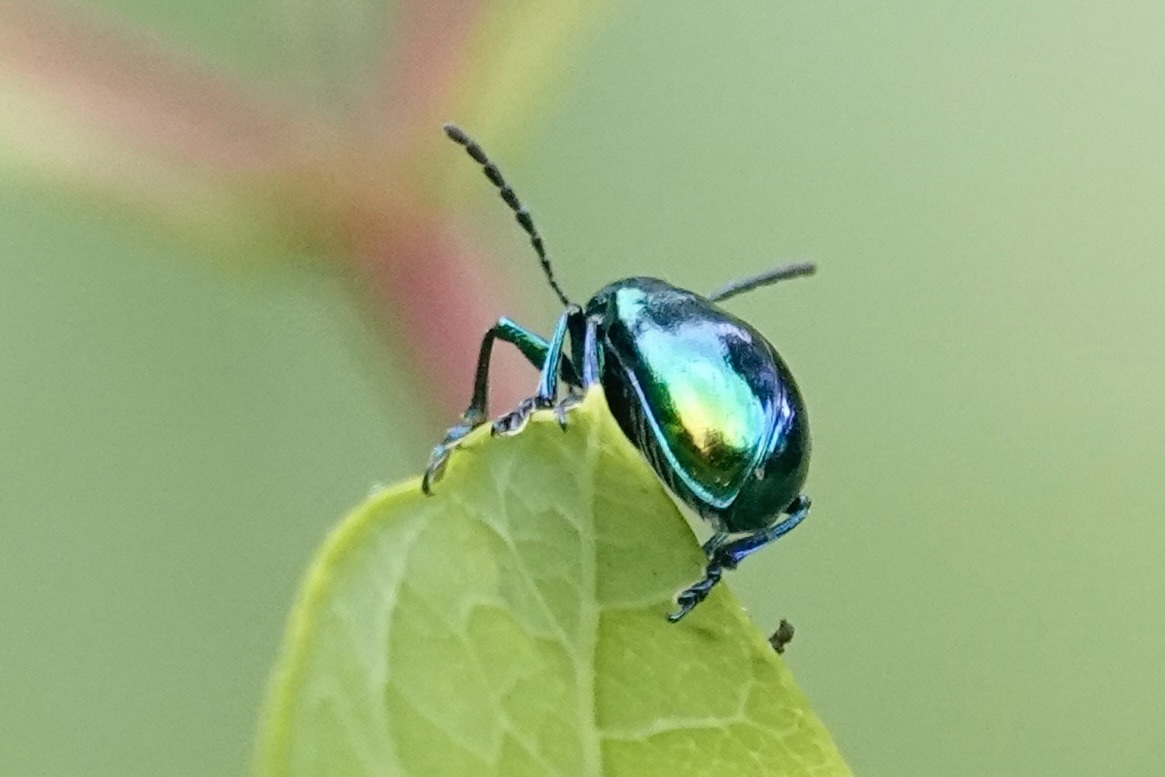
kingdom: Animalia
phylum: Arthropoda
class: Insecta
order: Coleoptera
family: Chrysomelidae
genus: Chrysochus
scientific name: Chrysochus auratus
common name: Dogbane leaf beetle
